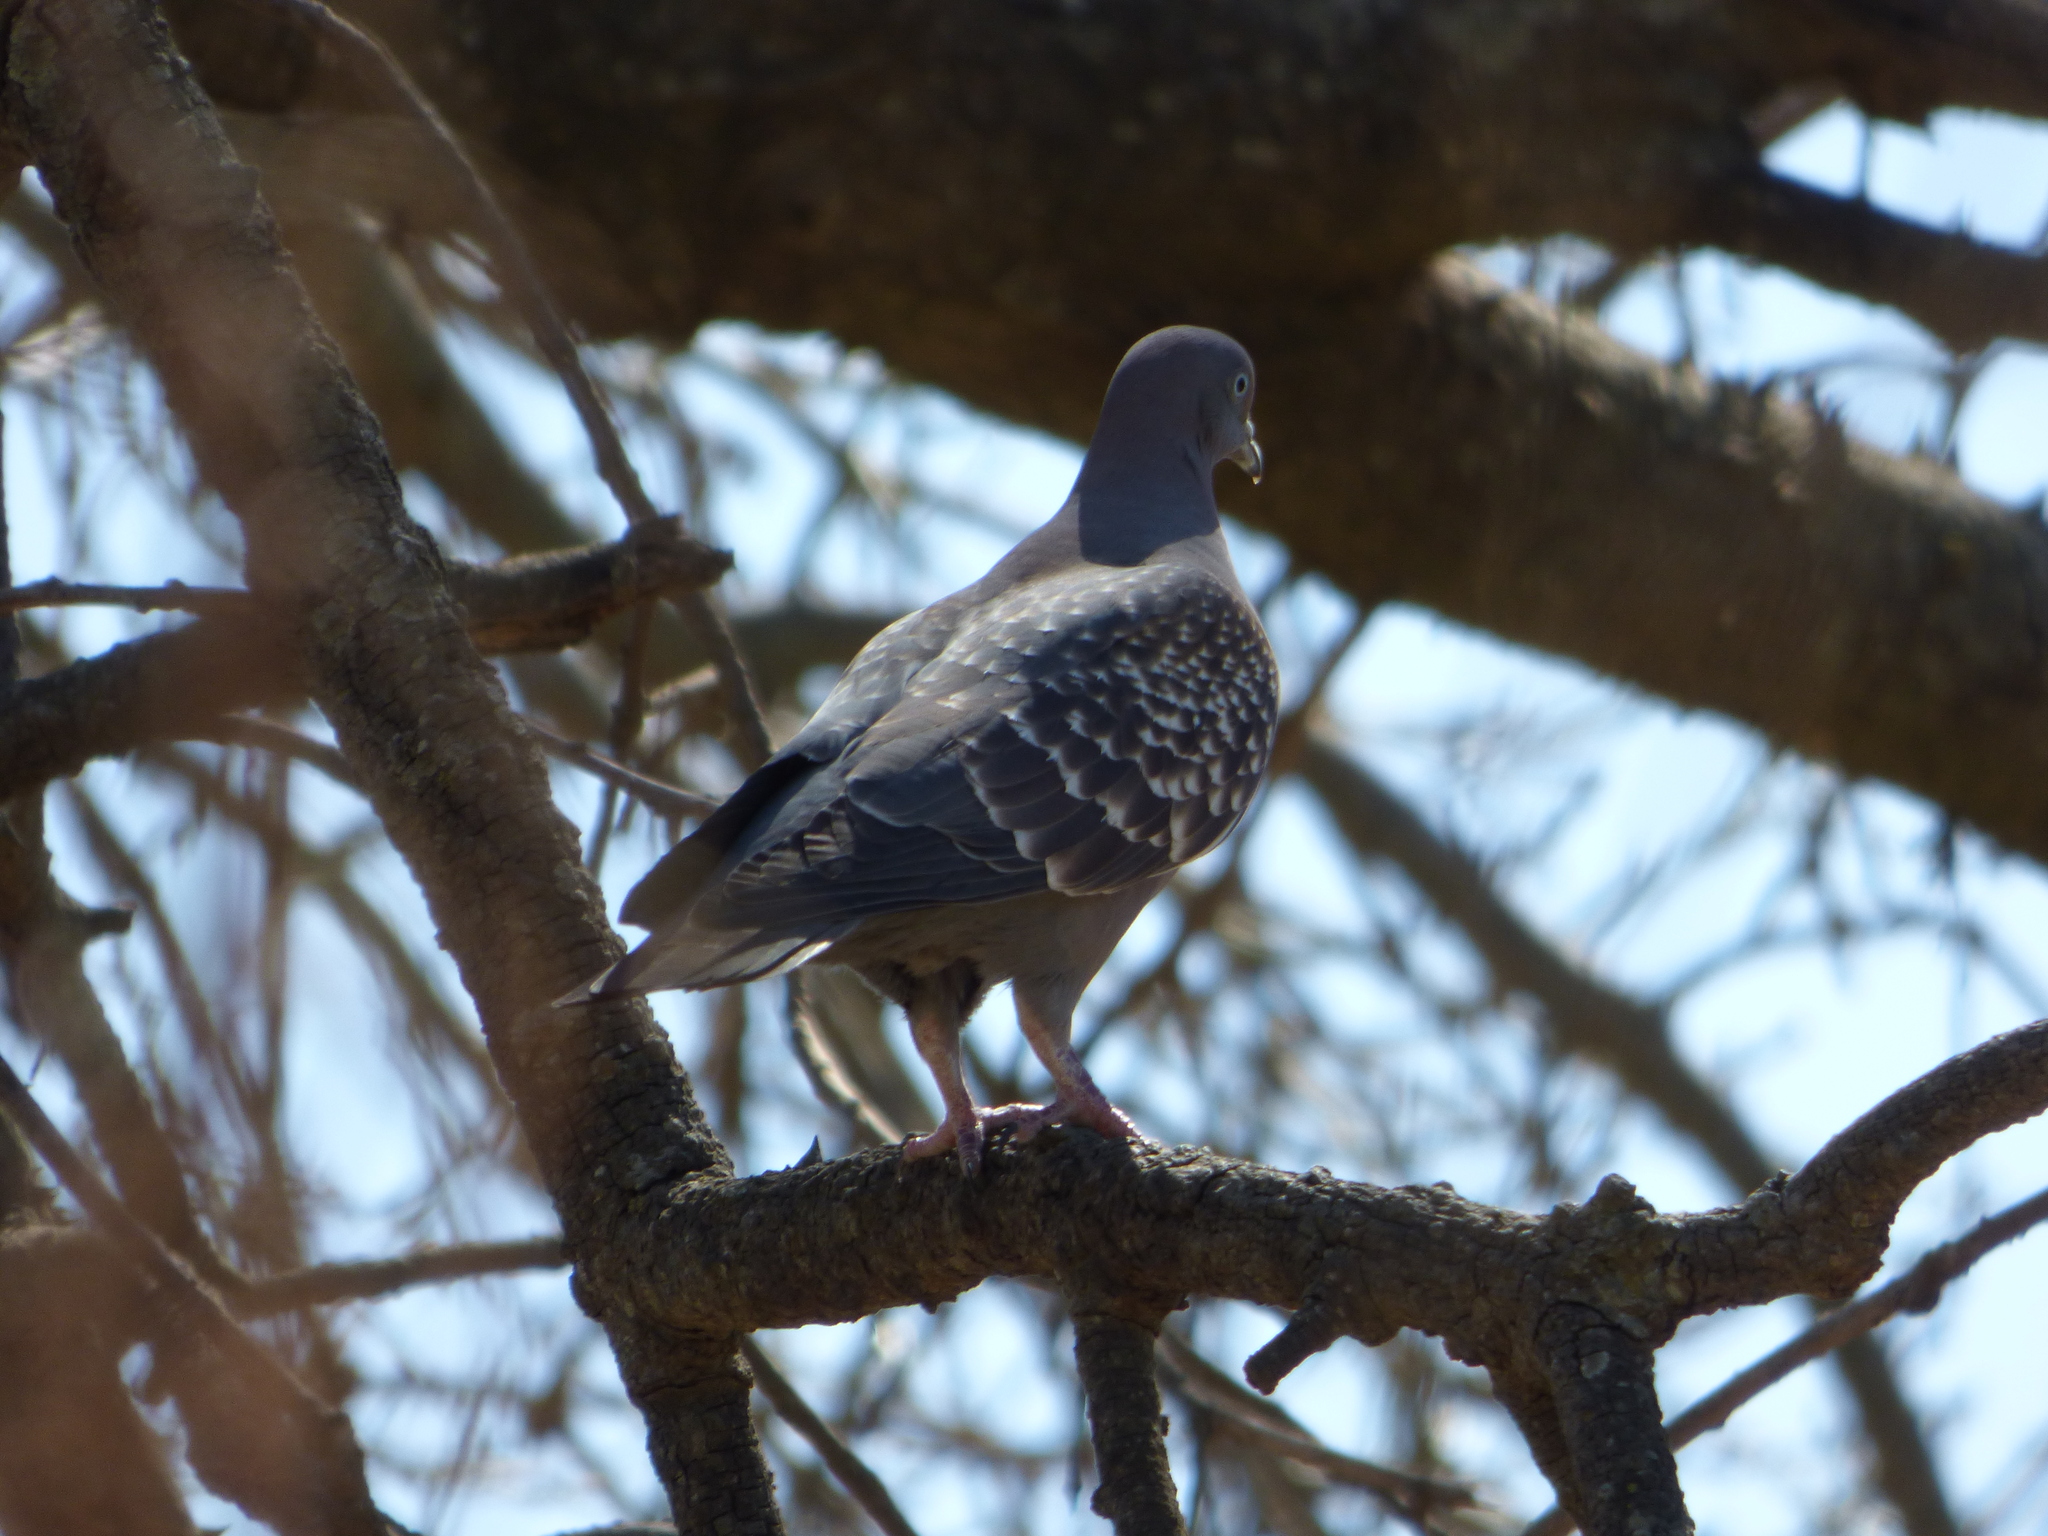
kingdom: Animalia
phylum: Chordata
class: Aves
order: Columbiformes
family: Columbidae
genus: Patagioenas
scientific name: Patagioenas maculosa
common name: Spot-winged pigeon
